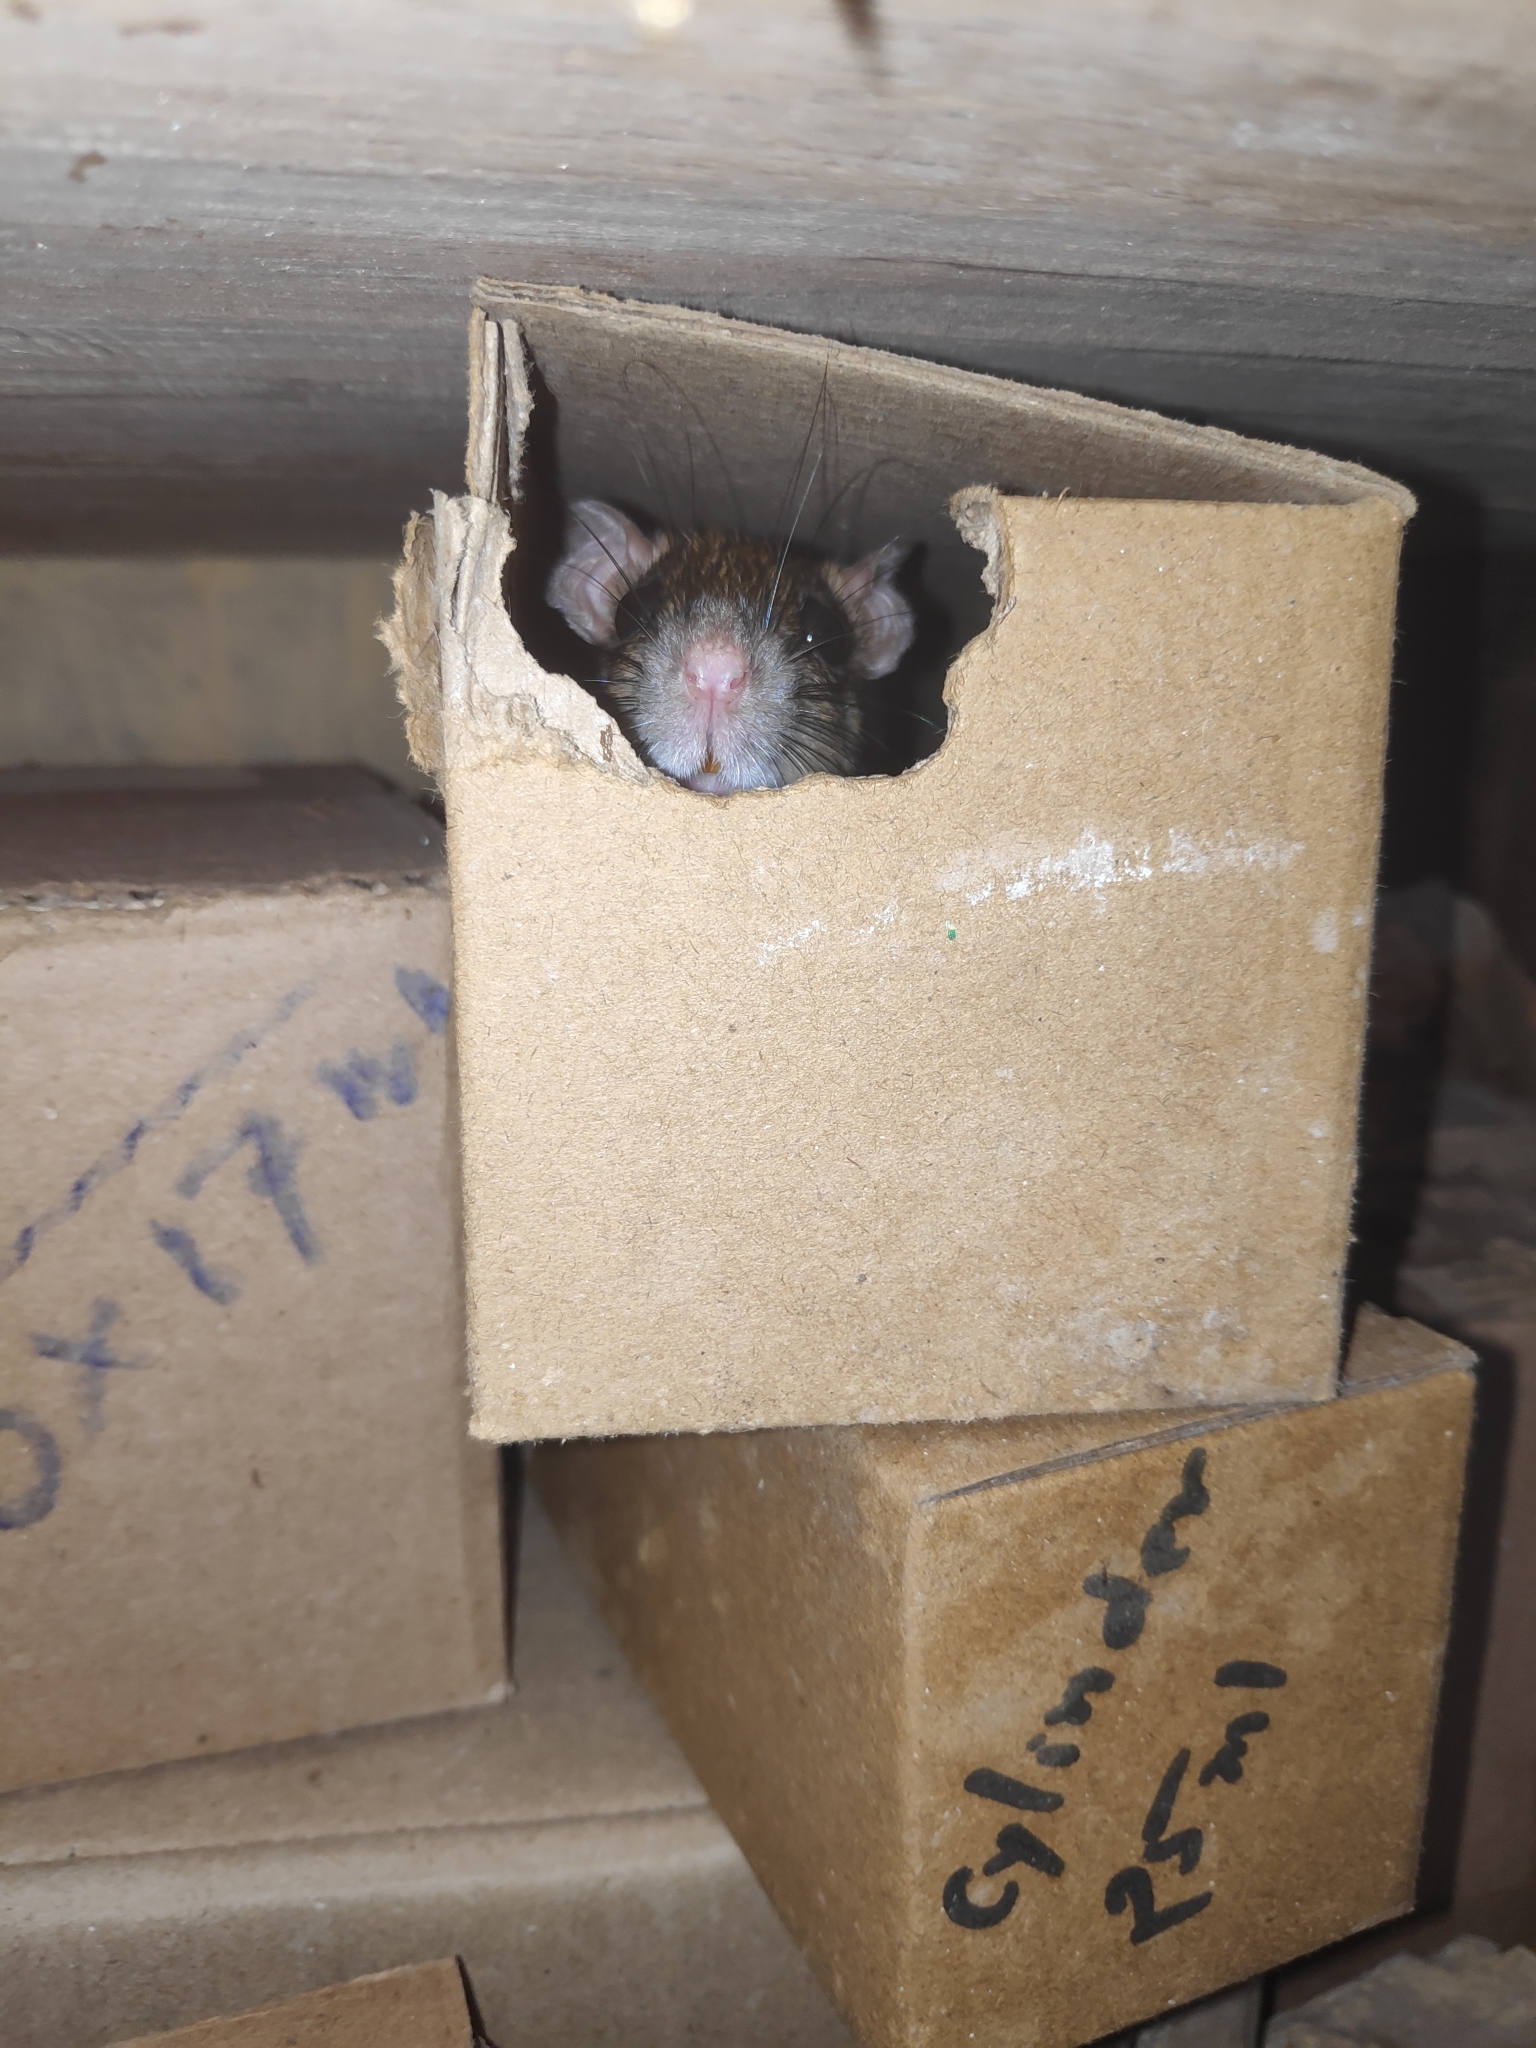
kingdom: Animalia
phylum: Chordata
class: Mammalia
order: Rodentia
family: Muridae
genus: Rattus
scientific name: Rattus rattus
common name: Black rat
